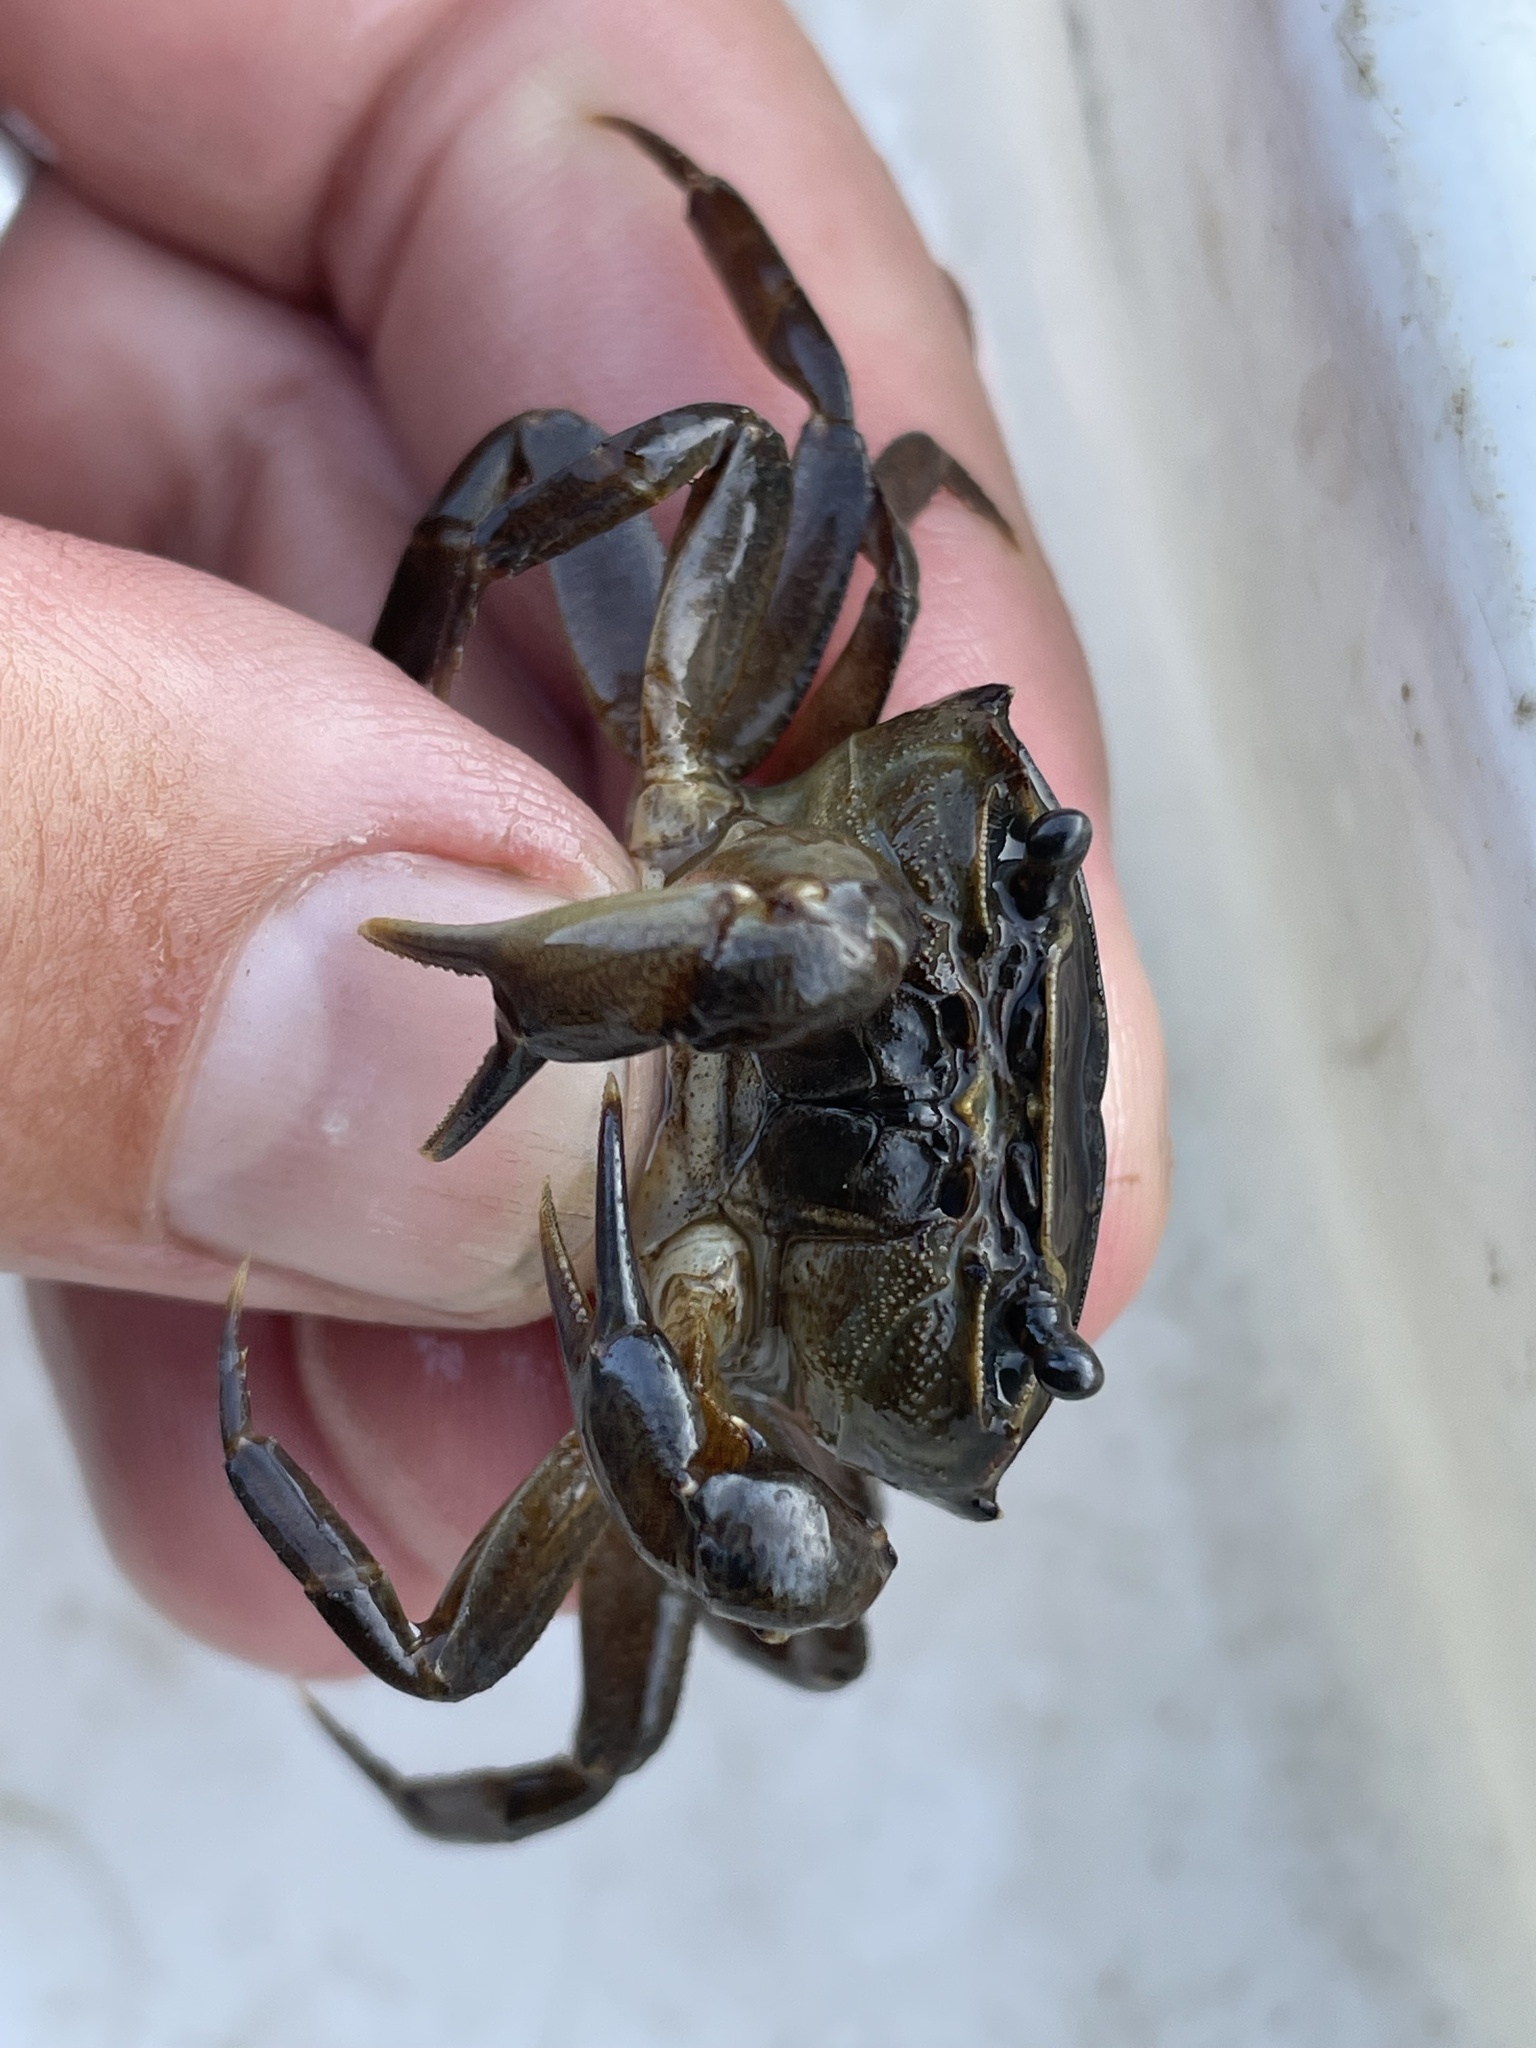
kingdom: Animalia
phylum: Arthropoda
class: Malacostraca
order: Decapoda
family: Potamonautidae
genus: Potamonautes
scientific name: Potamonautes bayonianus
